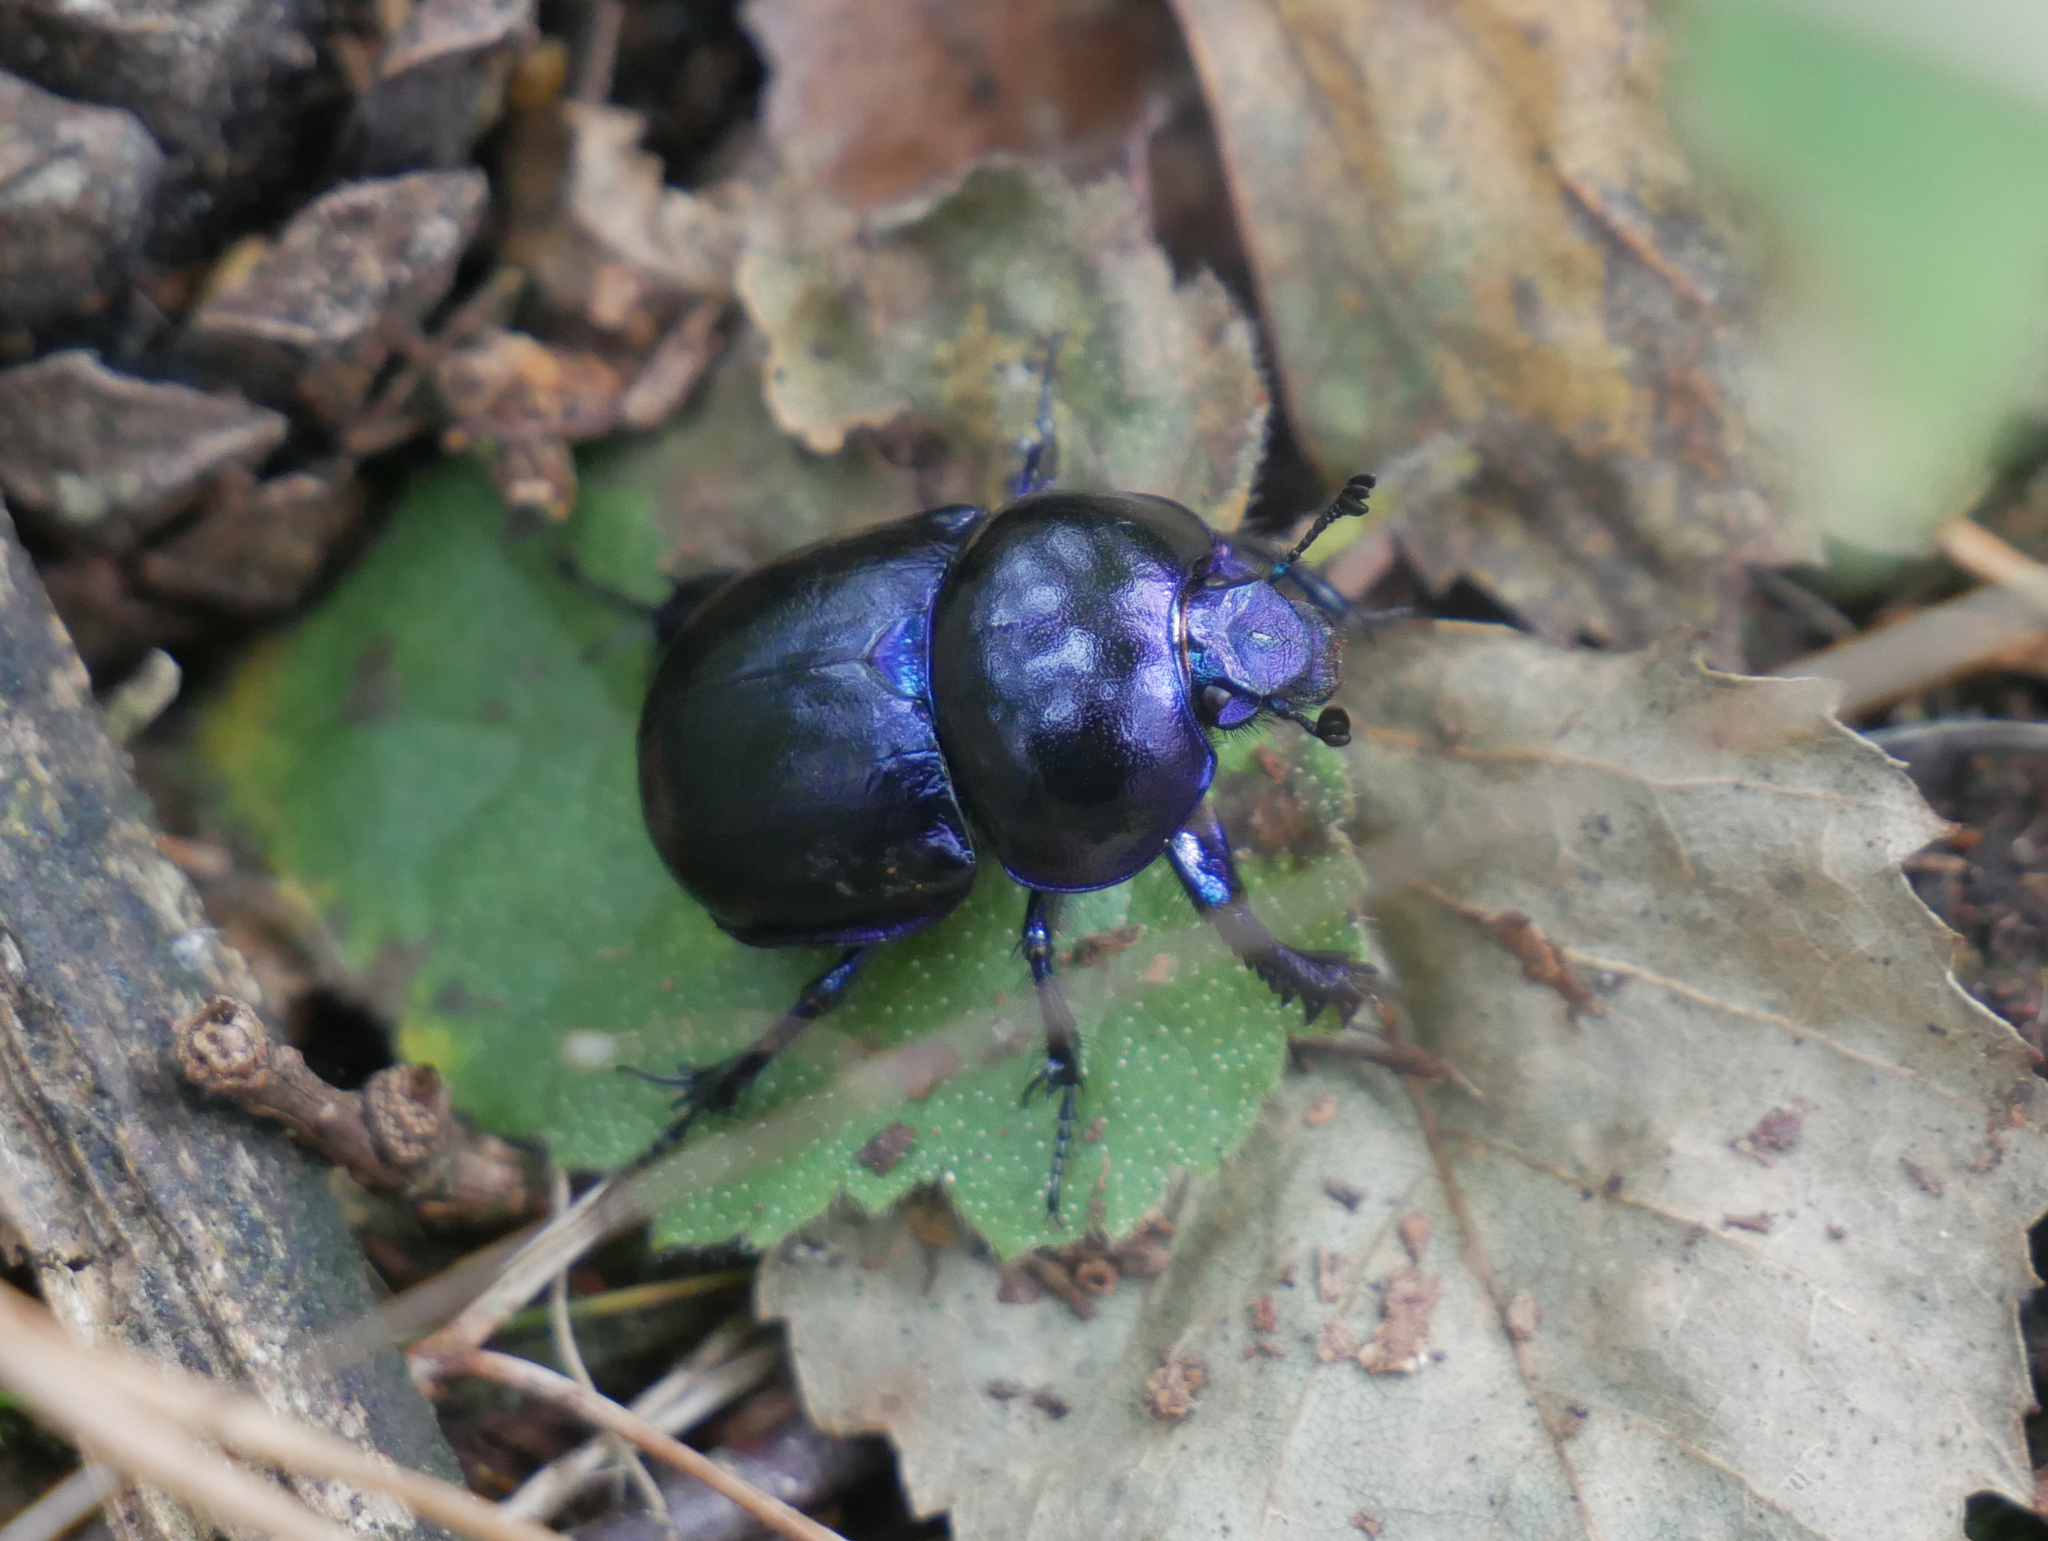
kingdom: Animalia
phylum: Arthropoda
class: Insecta
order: Coleoptera
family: Geotrupidae
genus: Trypocopris
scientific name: Trypocopris vernalis
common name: Spring dumbledor
